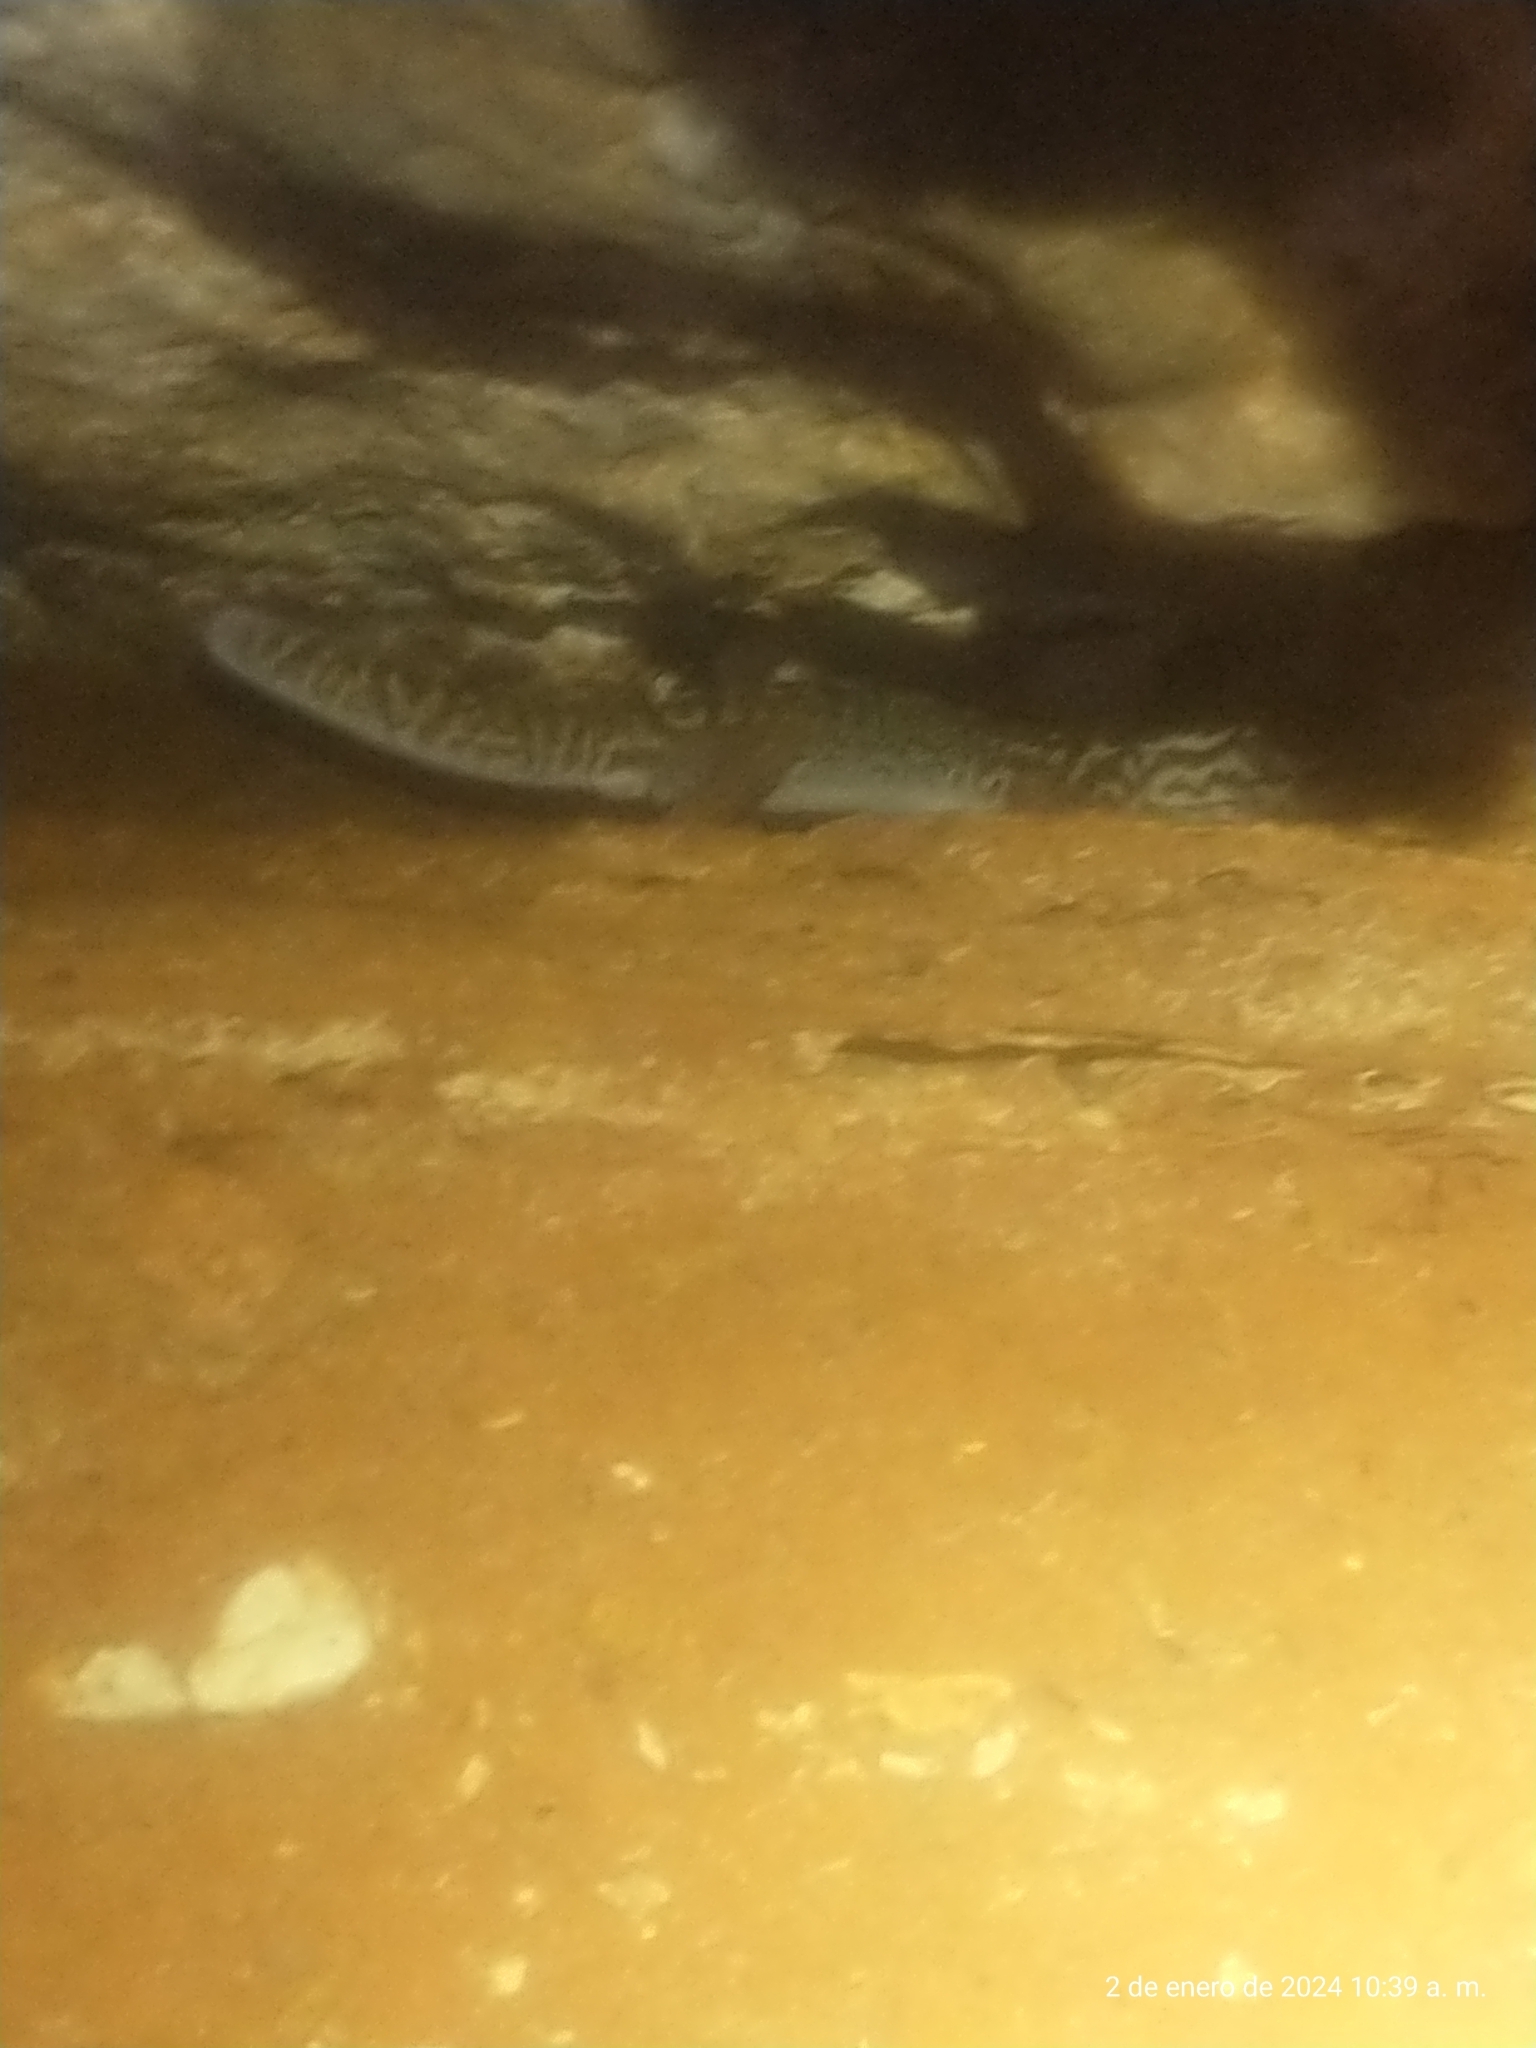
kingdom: Animalia
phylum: Chordata
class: Squamata
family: Eublepharidae
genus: Coleonyx
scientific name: Coleonyx elegans
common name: Yucatan banded gecko
